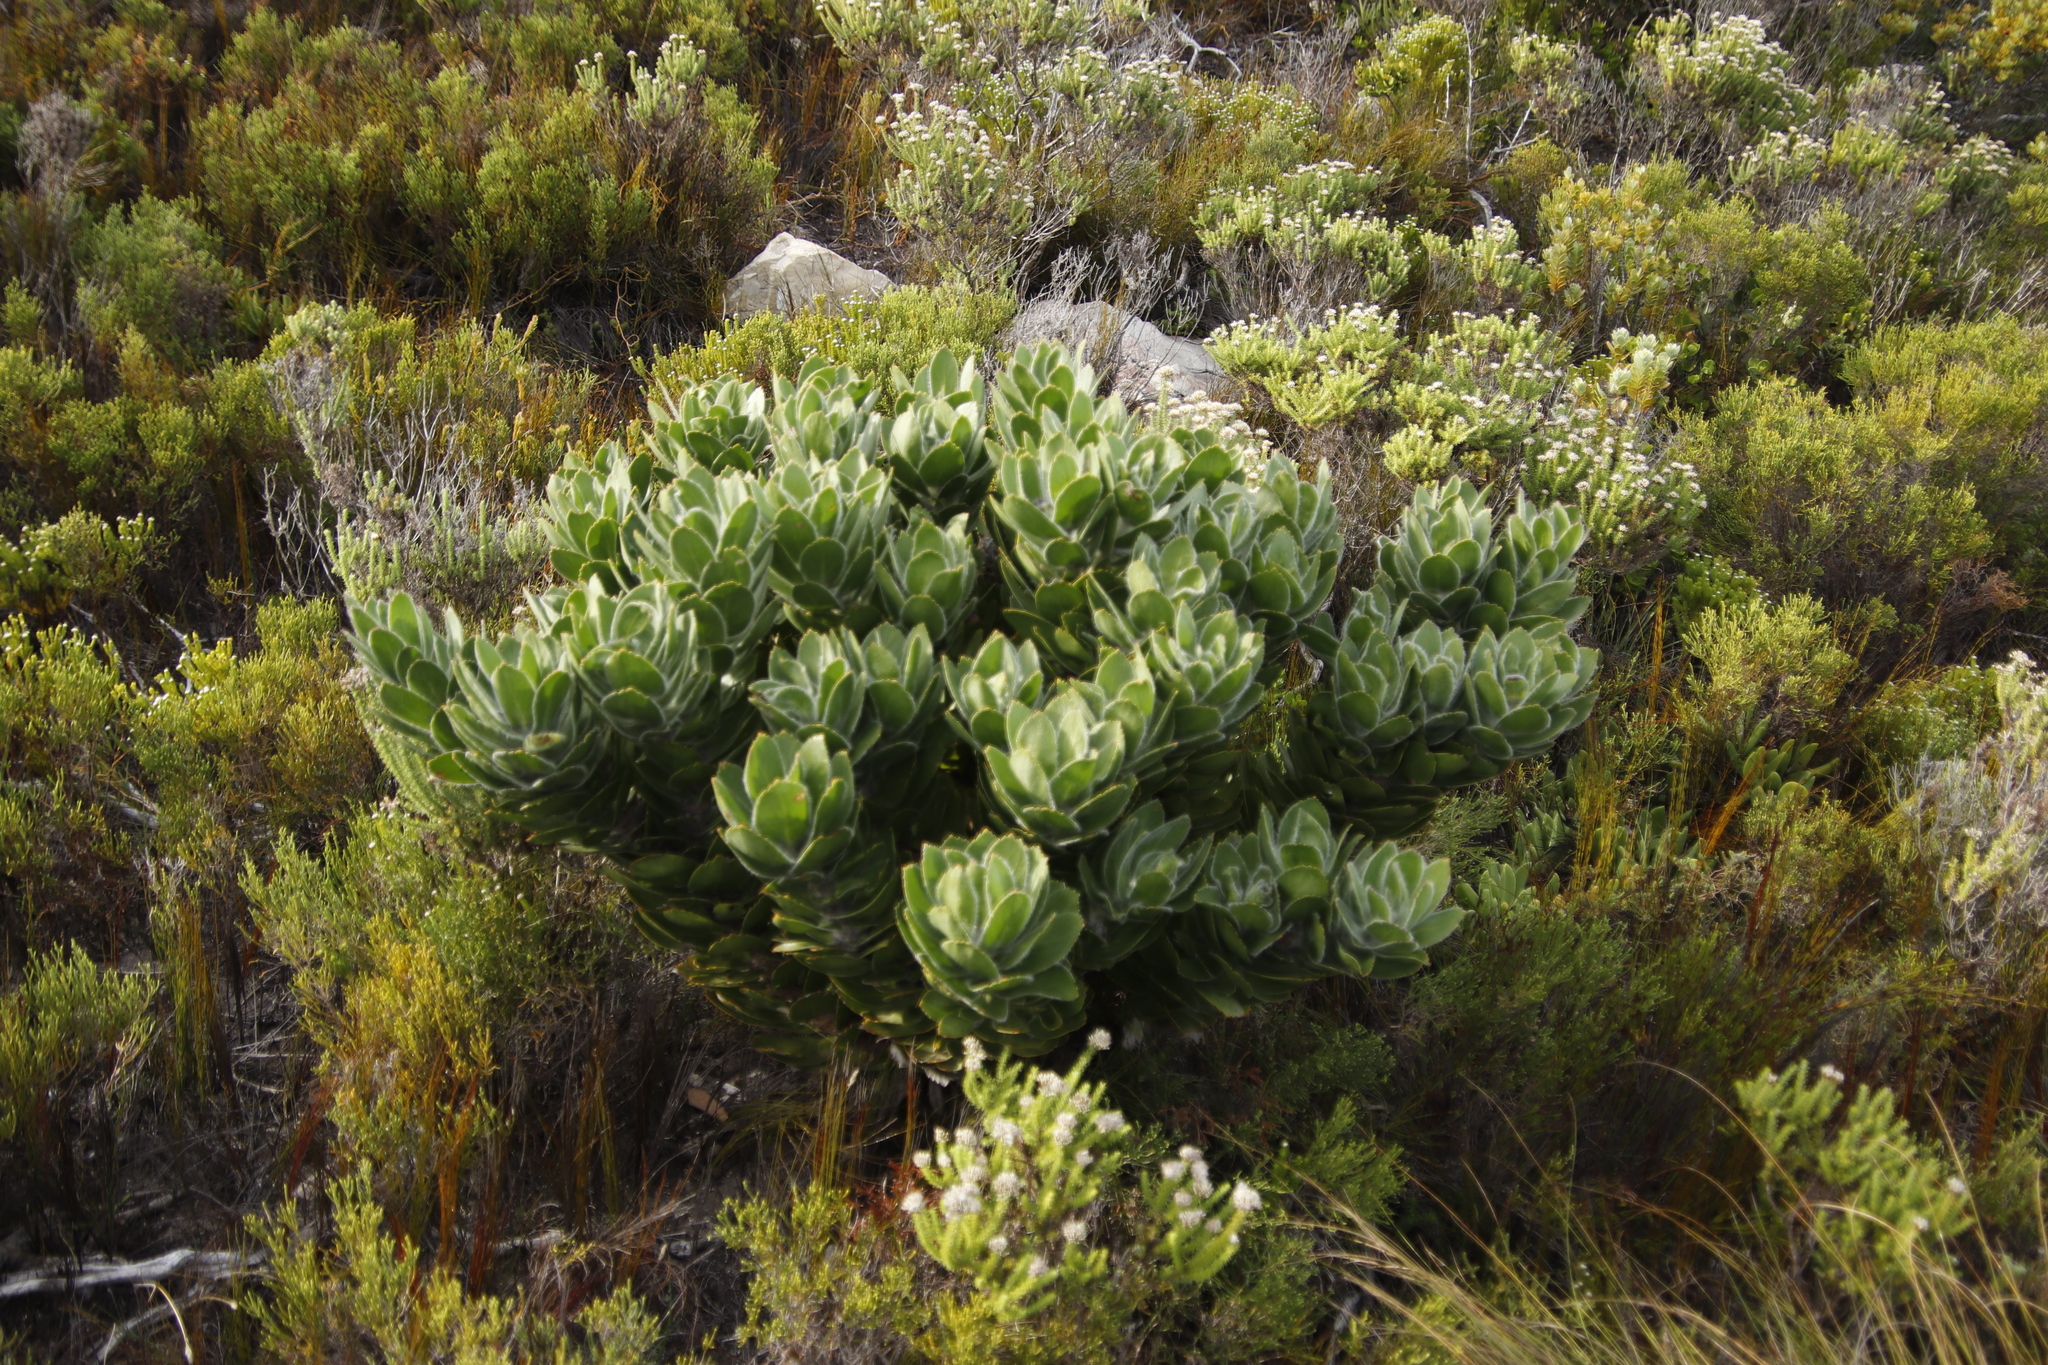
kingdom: Plantae
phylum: Tracheophyta
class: Magnoliopsida
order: Proteales
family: Proteaceae
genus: Leucospermum
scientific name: Leucospermum conocarpodendron
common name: Tree pincushion
